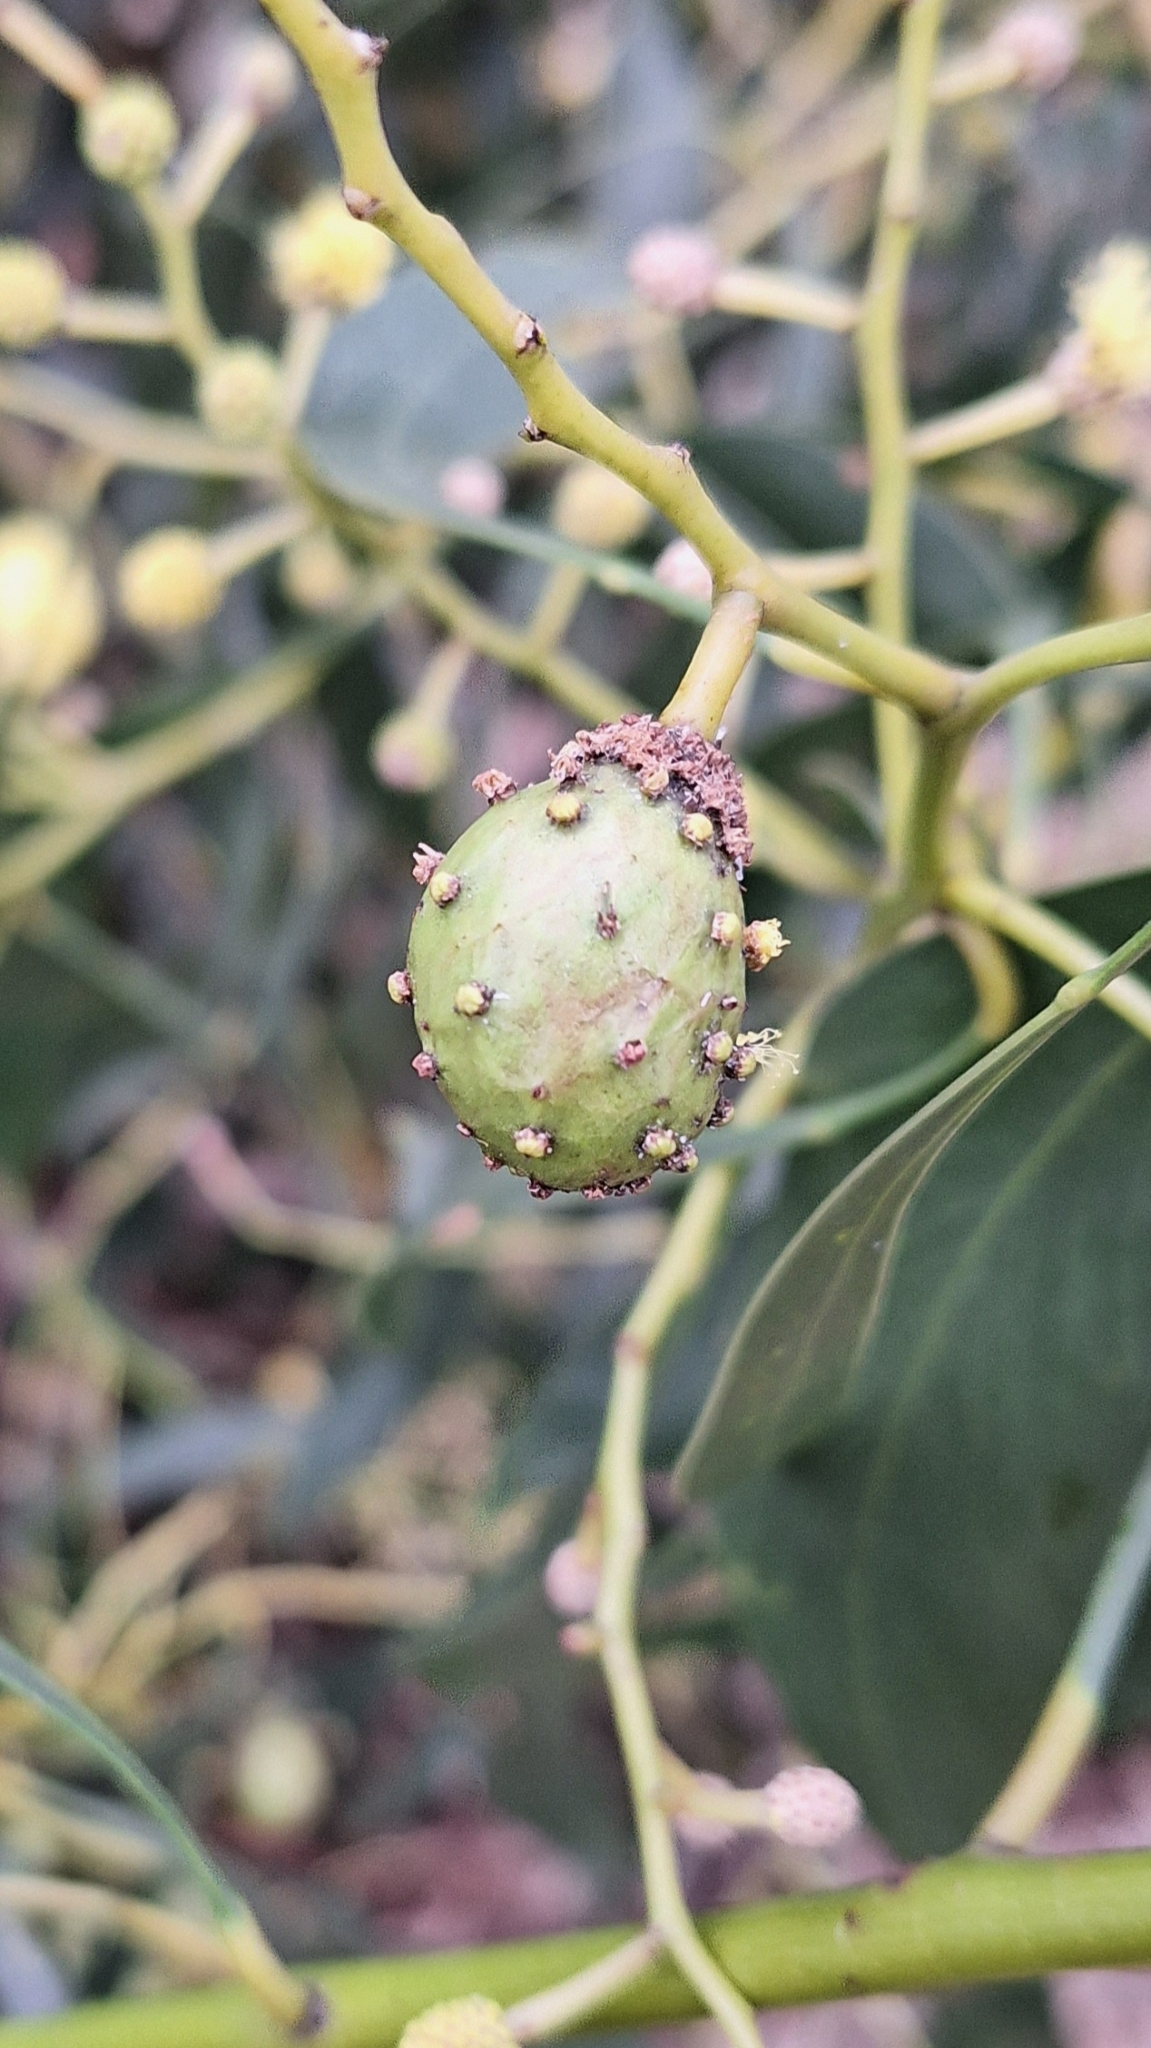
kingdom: Animalia
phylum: Arthropoda
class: Insecta
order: Hymenoptera
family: Pteromalidae
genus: Trichilogaster
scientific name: Trichilogaster signiventris
